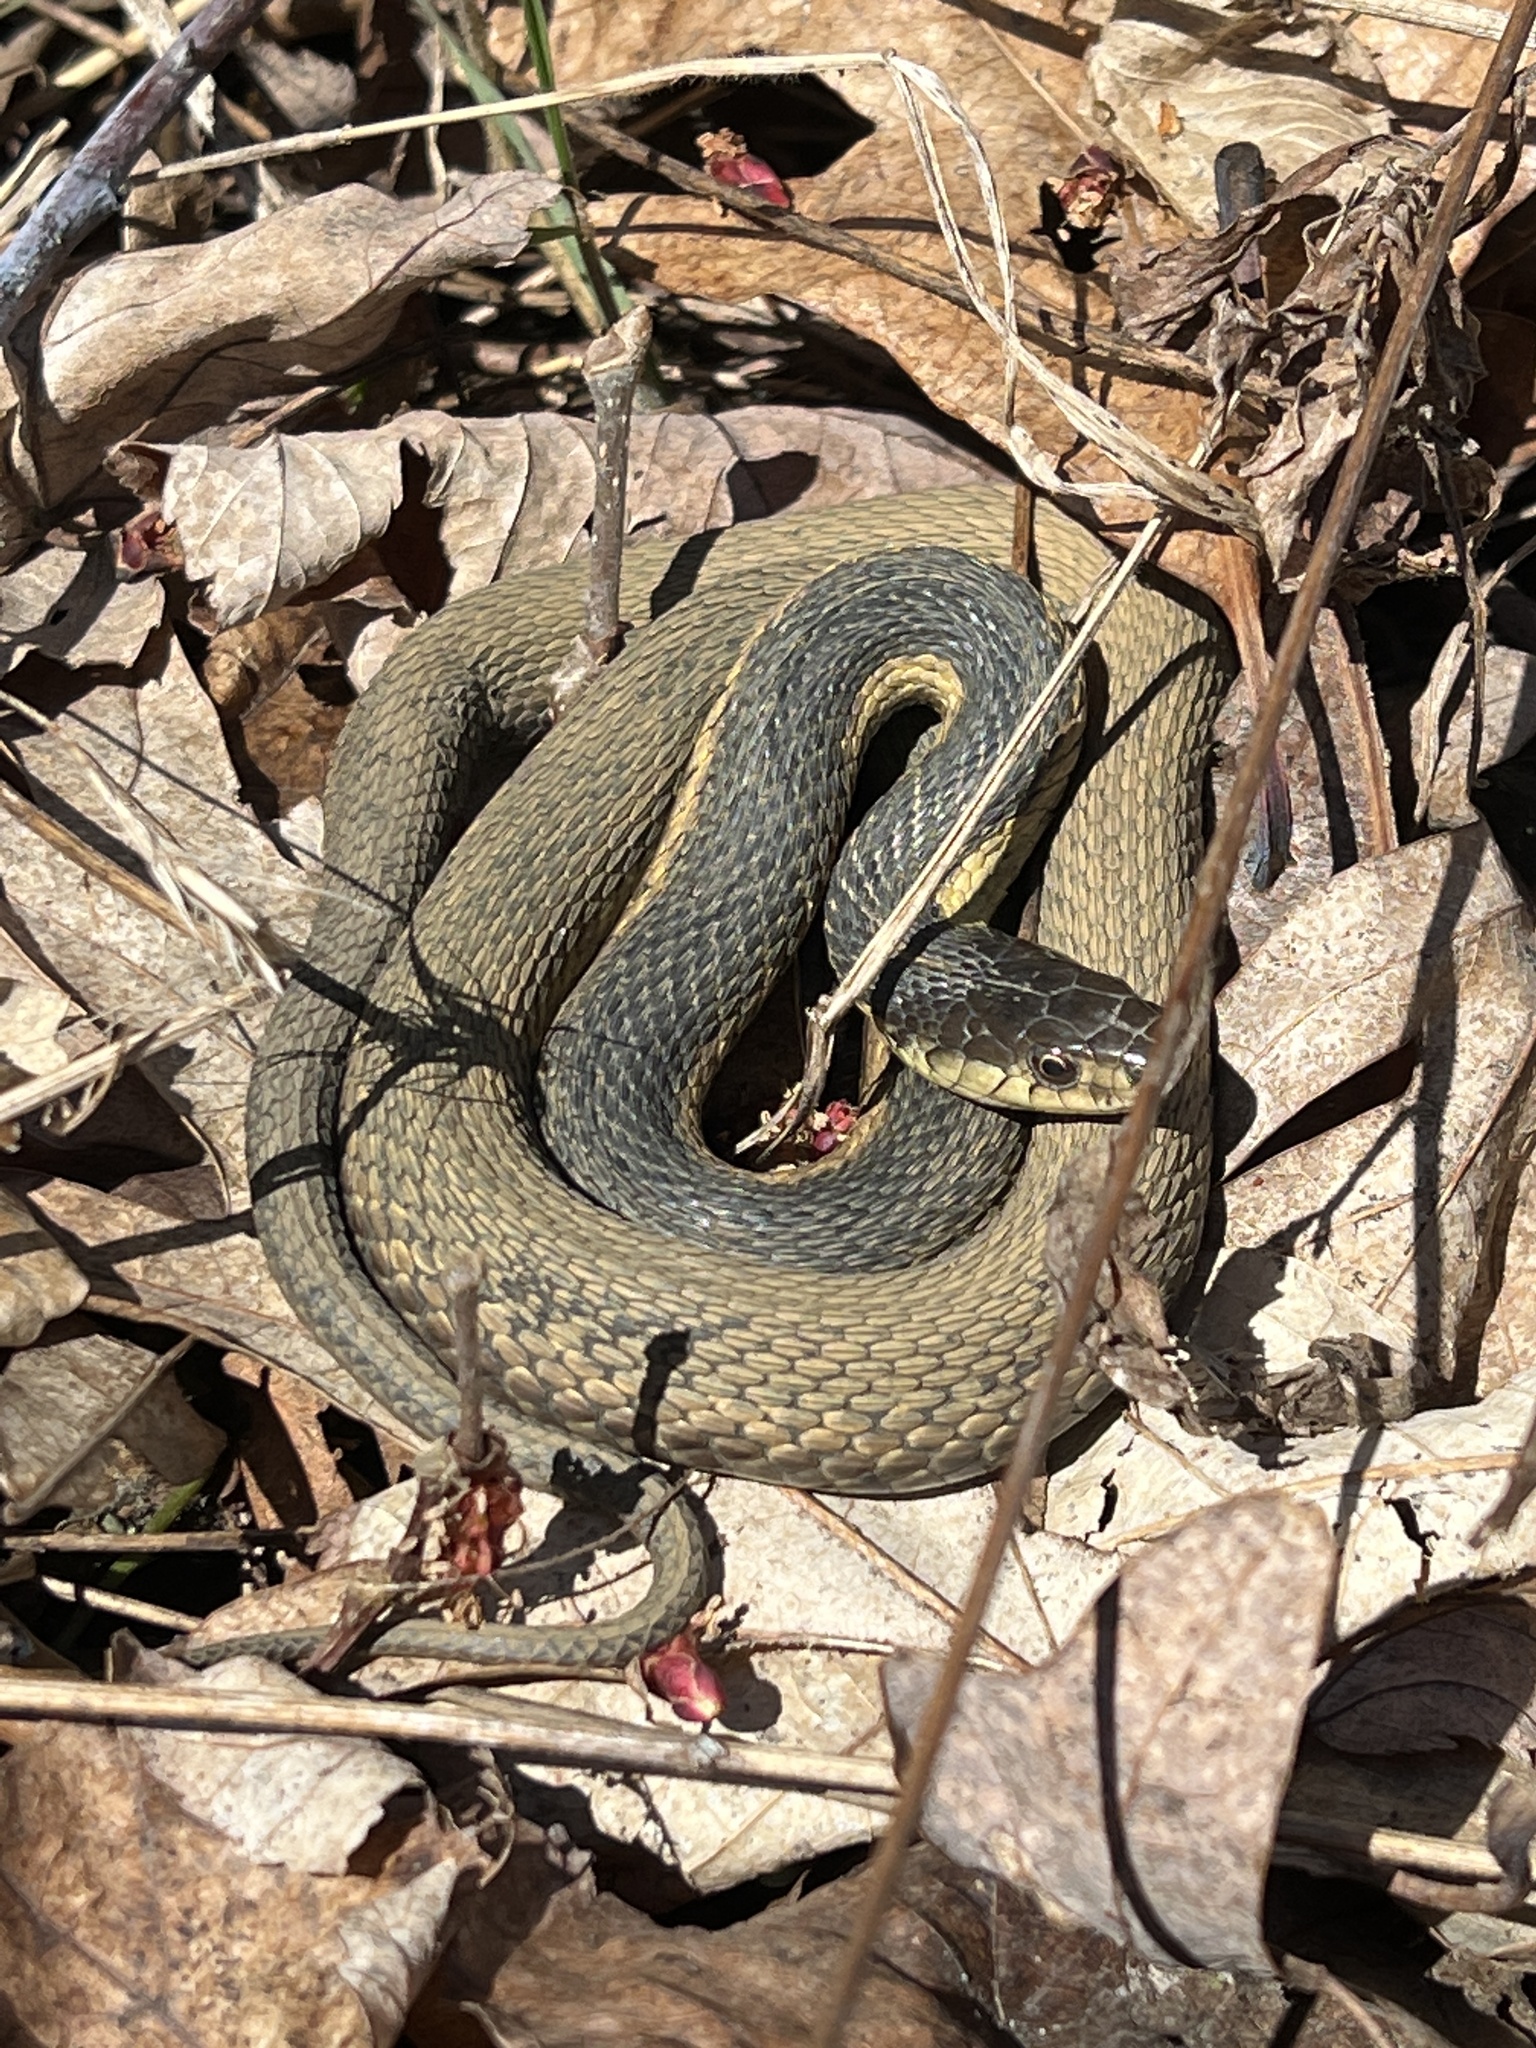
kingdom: Animalia
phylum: Chordata
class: Squamata
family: Colubridae
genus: Thamnophis
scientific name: Thamnophis sirtalis
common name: Common garter snake
